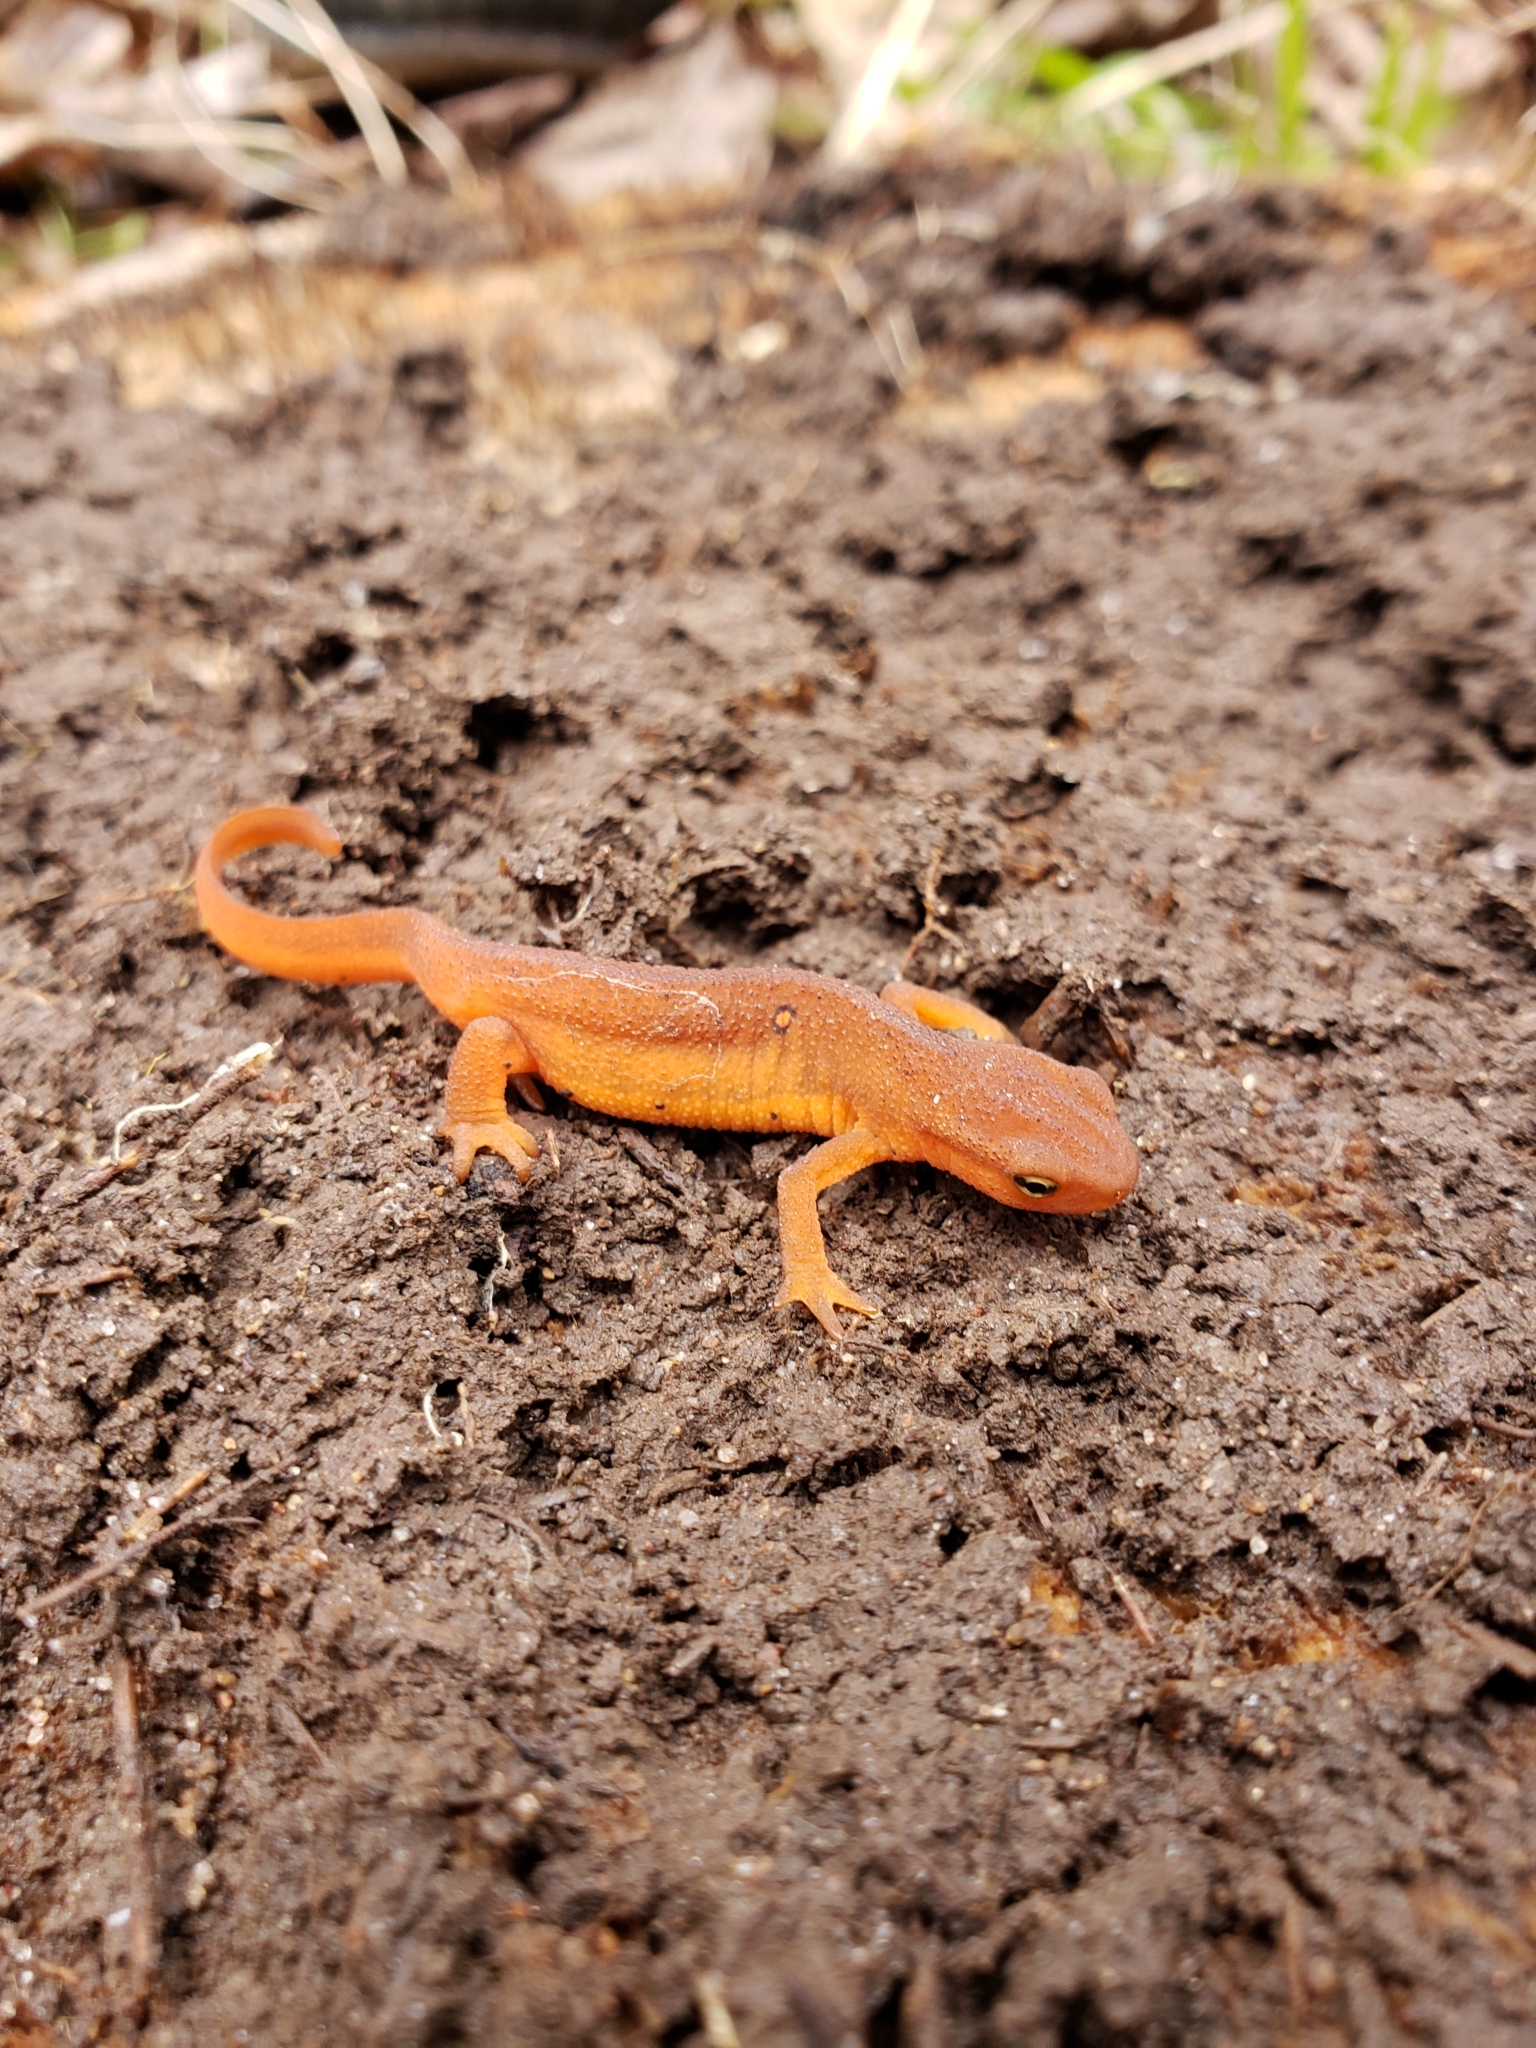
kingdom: Animalia
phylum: Chordata
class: Amphibia
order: Caudata
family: Salamandridae
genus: Notophthalmus
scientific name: Notophthalmus viridescens
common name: Eastern newt
